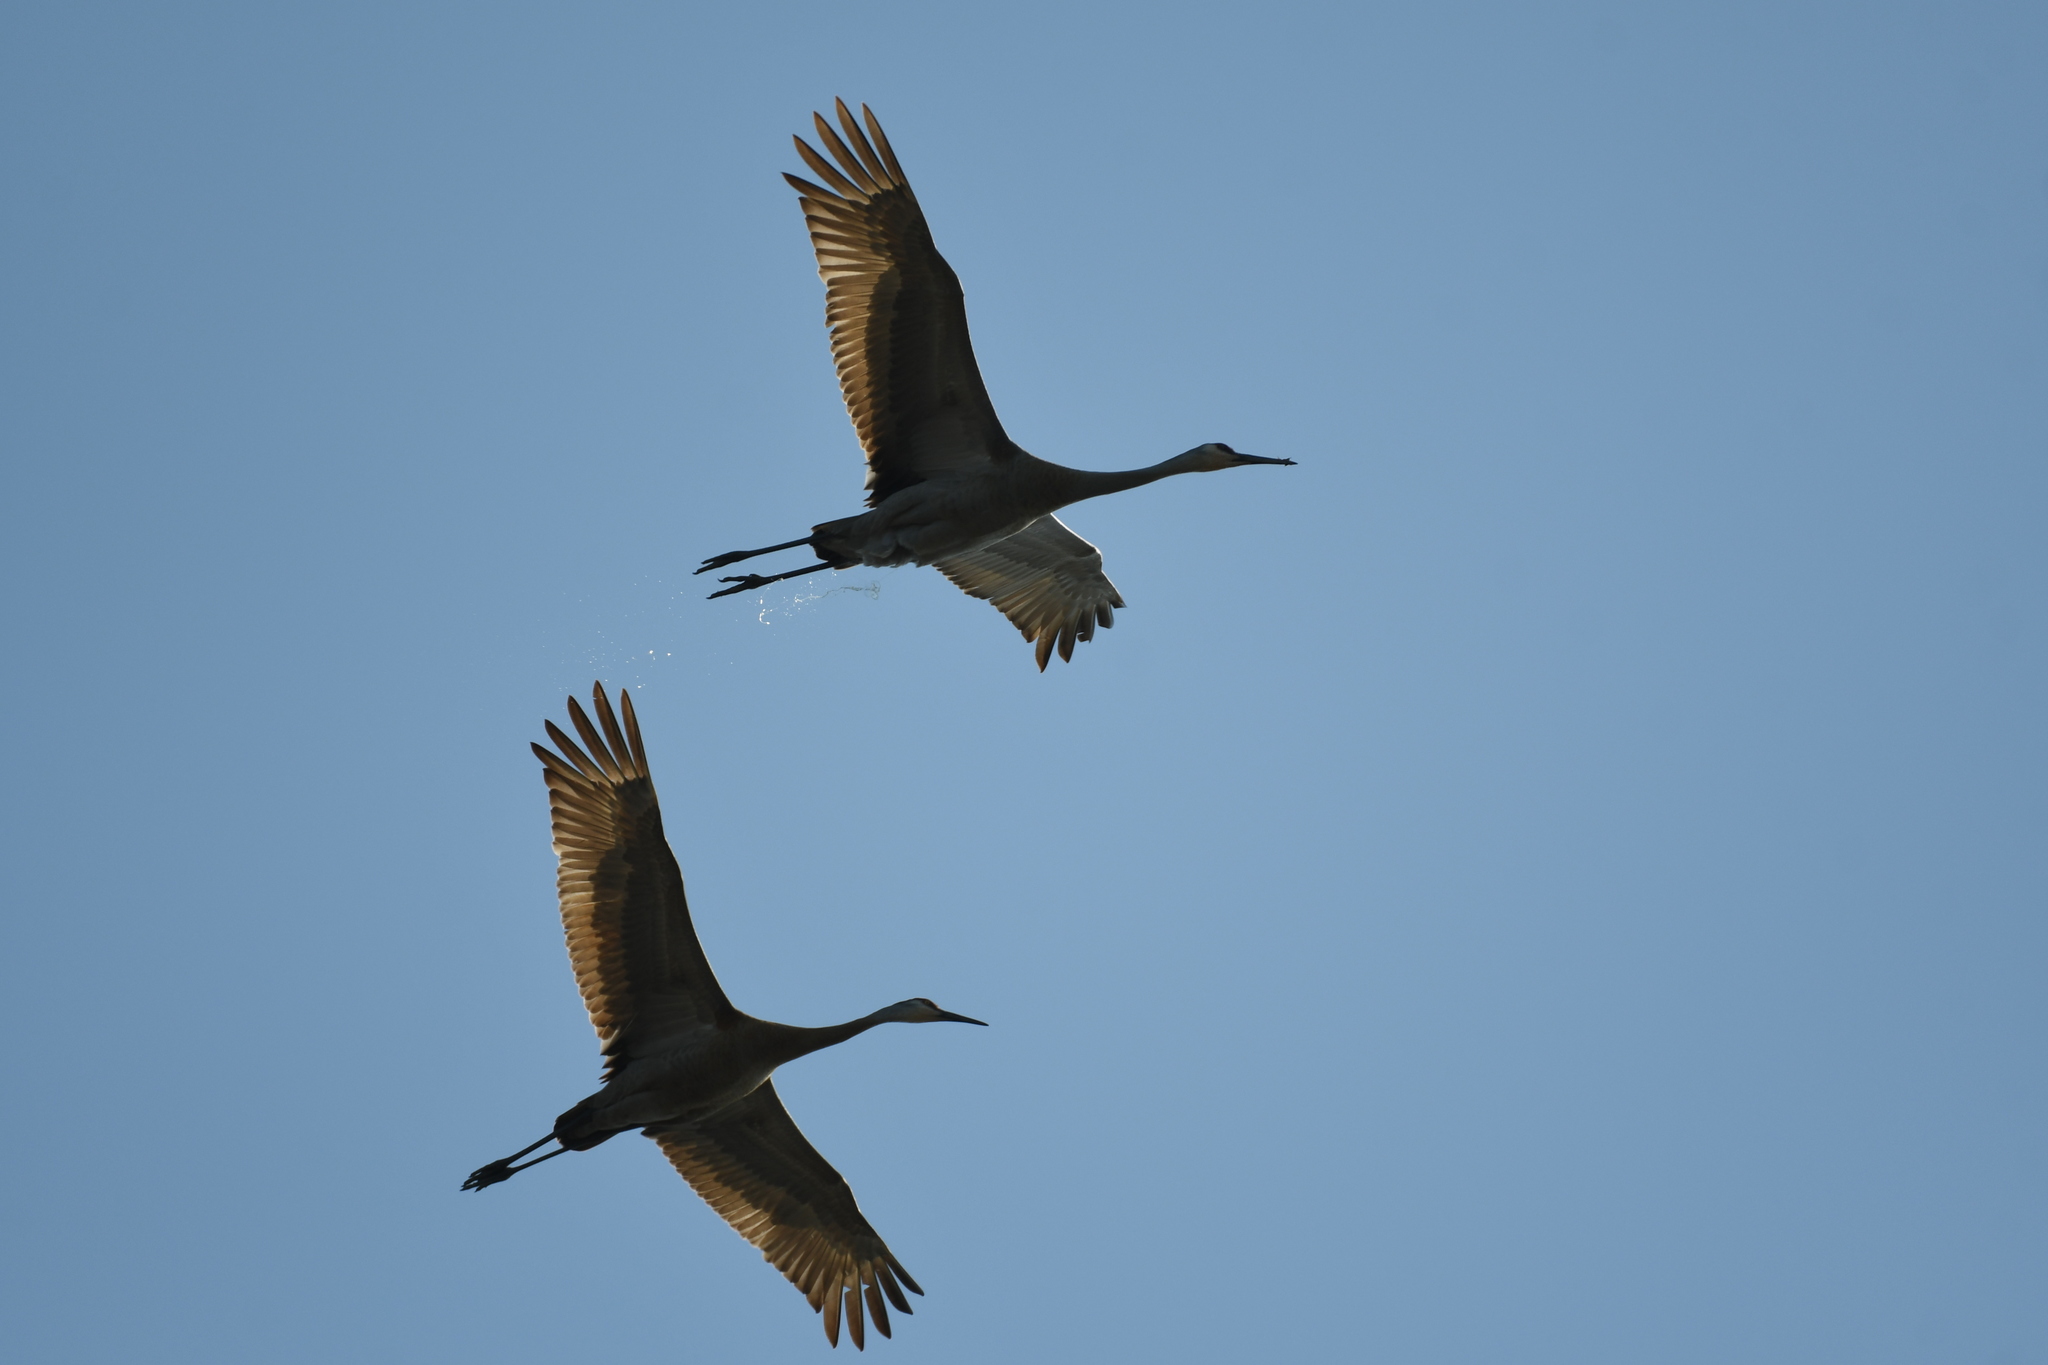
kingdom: Animalia
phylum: Chordata
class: Aves
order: Gruiformes
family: Gruidae
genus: Grus
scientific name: Grus canadensis
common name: Sandhill crane
